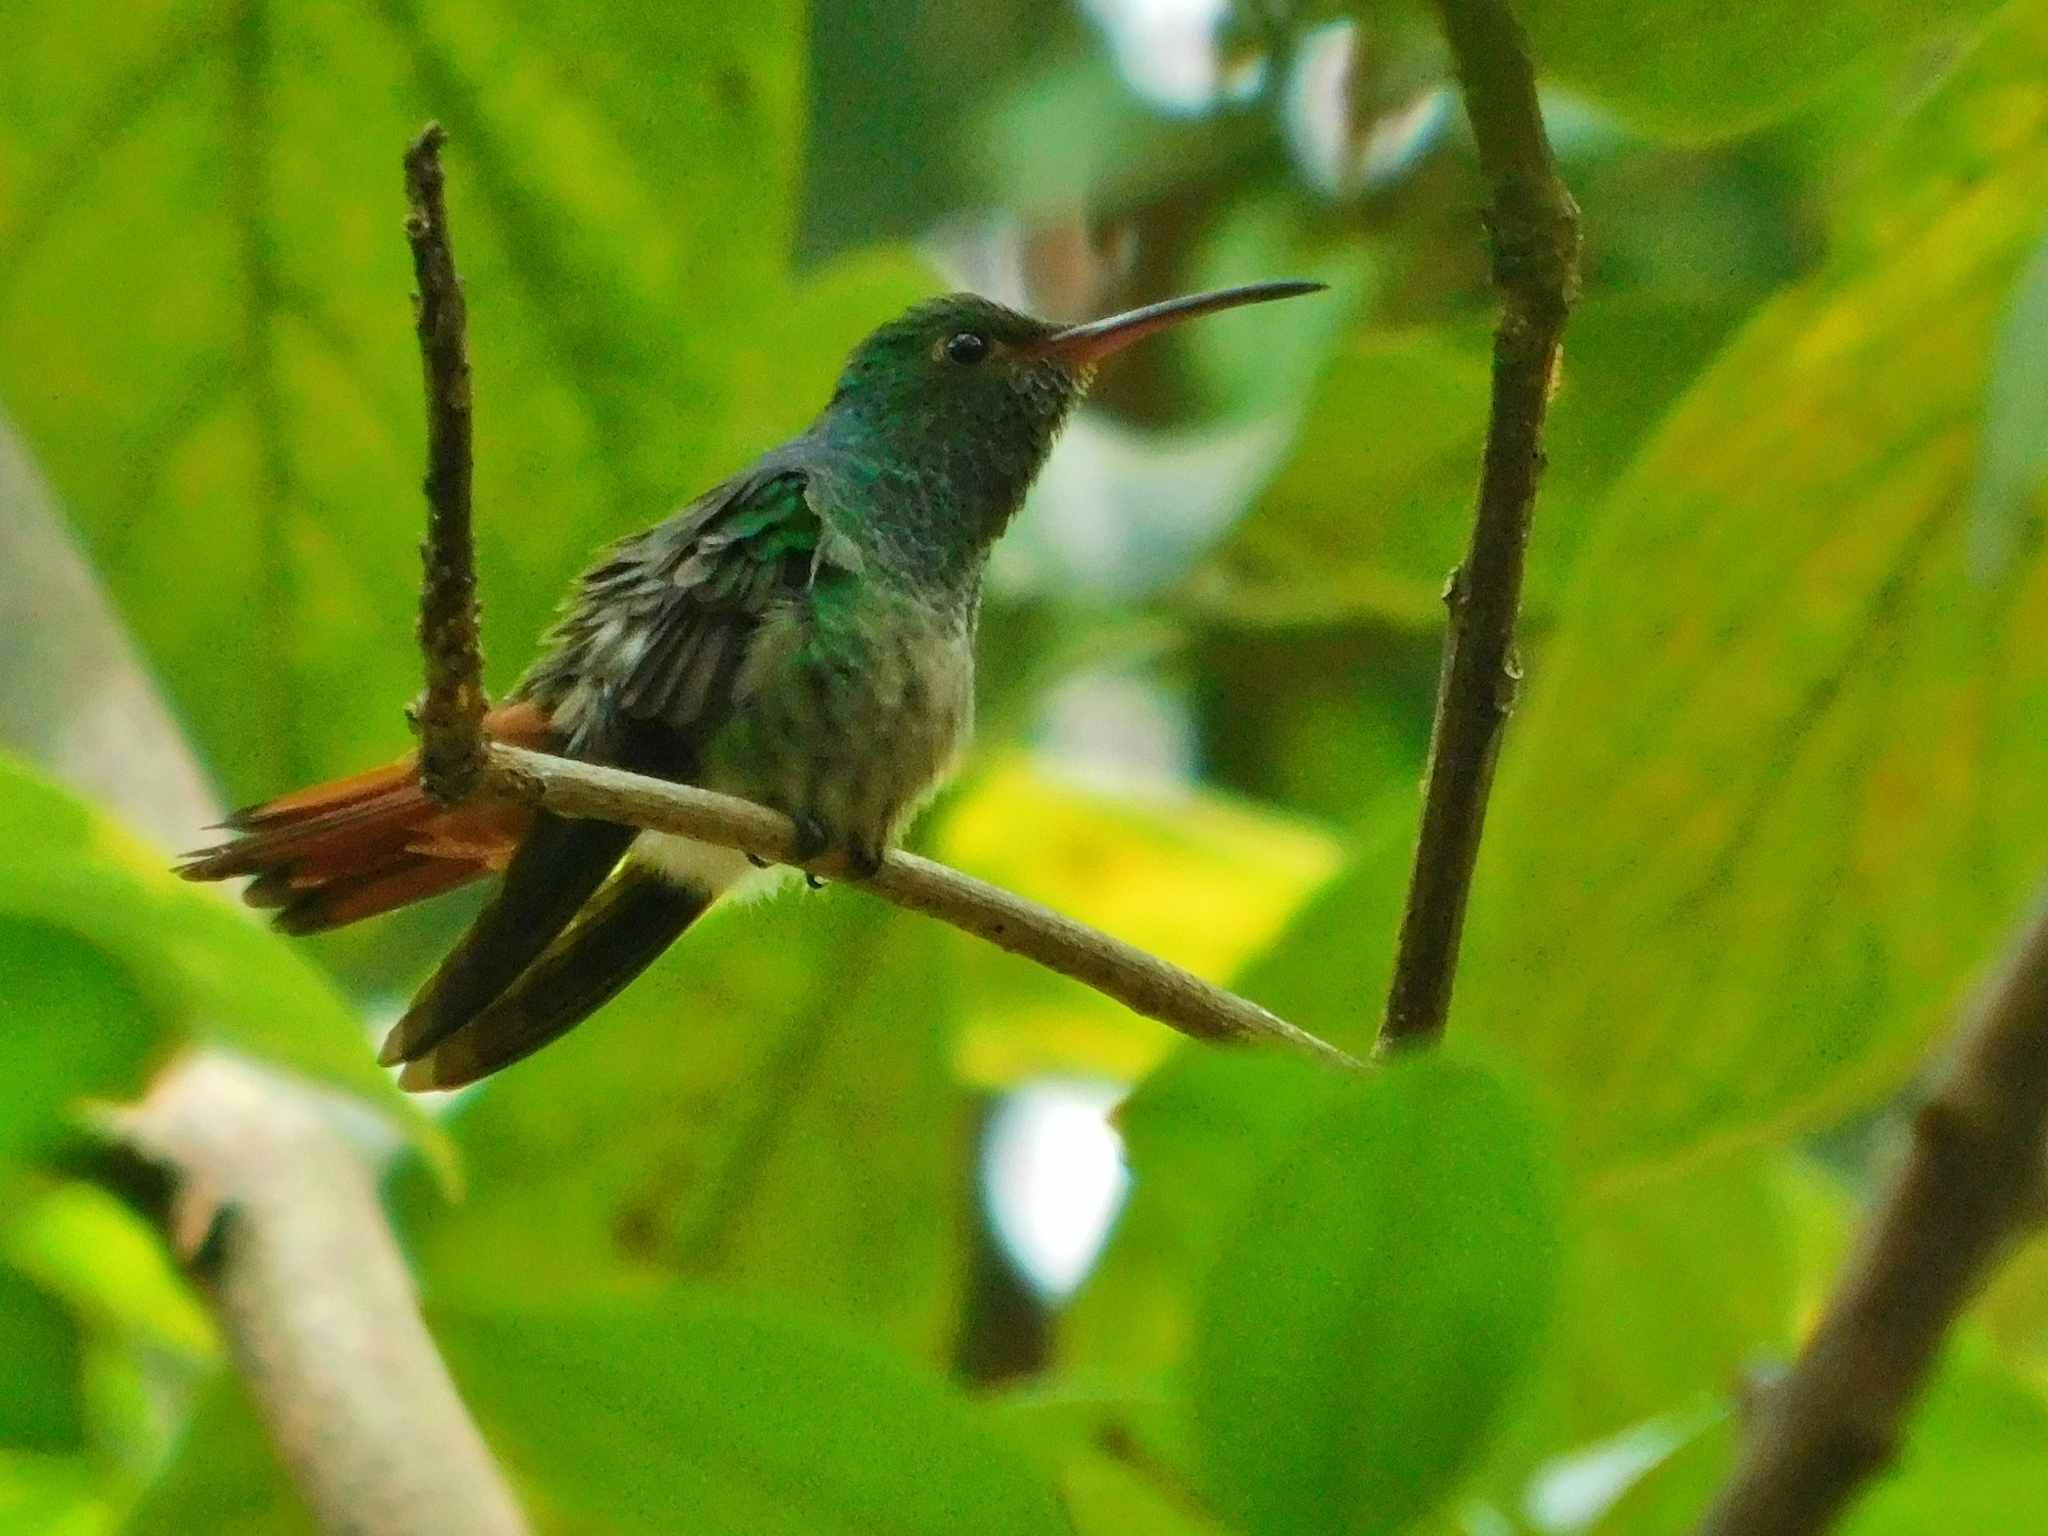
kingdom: Animalia
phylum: Chordata
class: Aves
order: Apodiformes
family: Trochilidae
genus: Amazilia
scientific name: Amazilia tzacatl
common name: Rufous-tailed hummingbird
